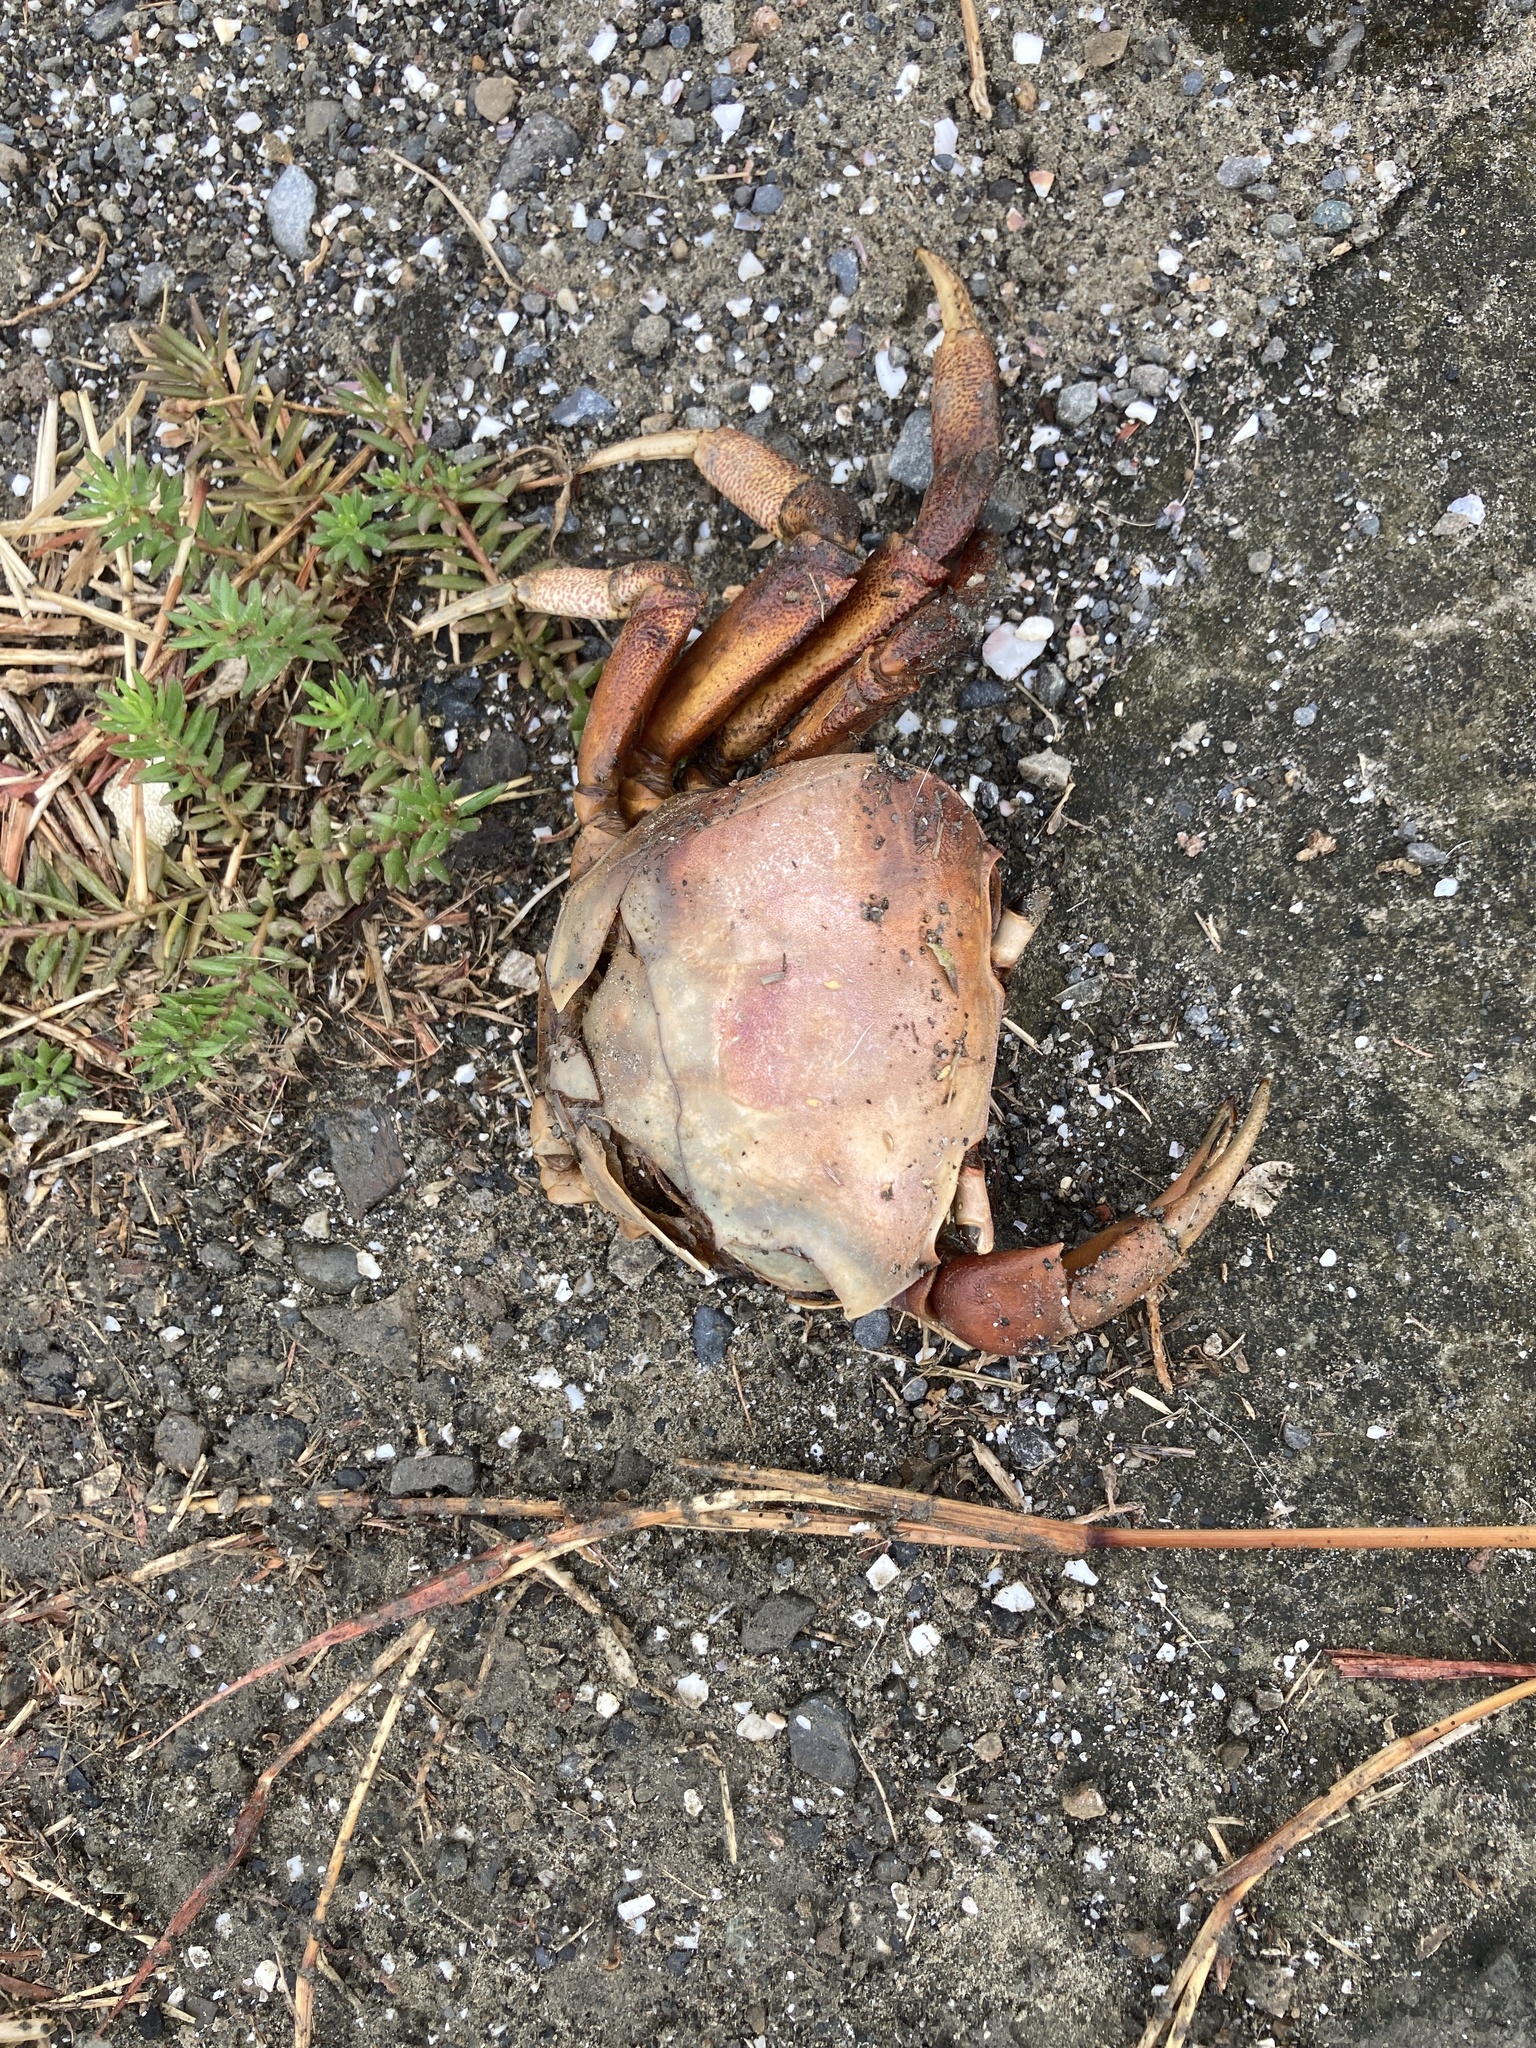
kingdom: Animalia
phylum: Arthropoda
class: Malacostraca
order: Decapoda
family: Gecarcinidae
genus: Cardisoma
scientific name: Cardisoma carnifex
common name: Brown land crab
